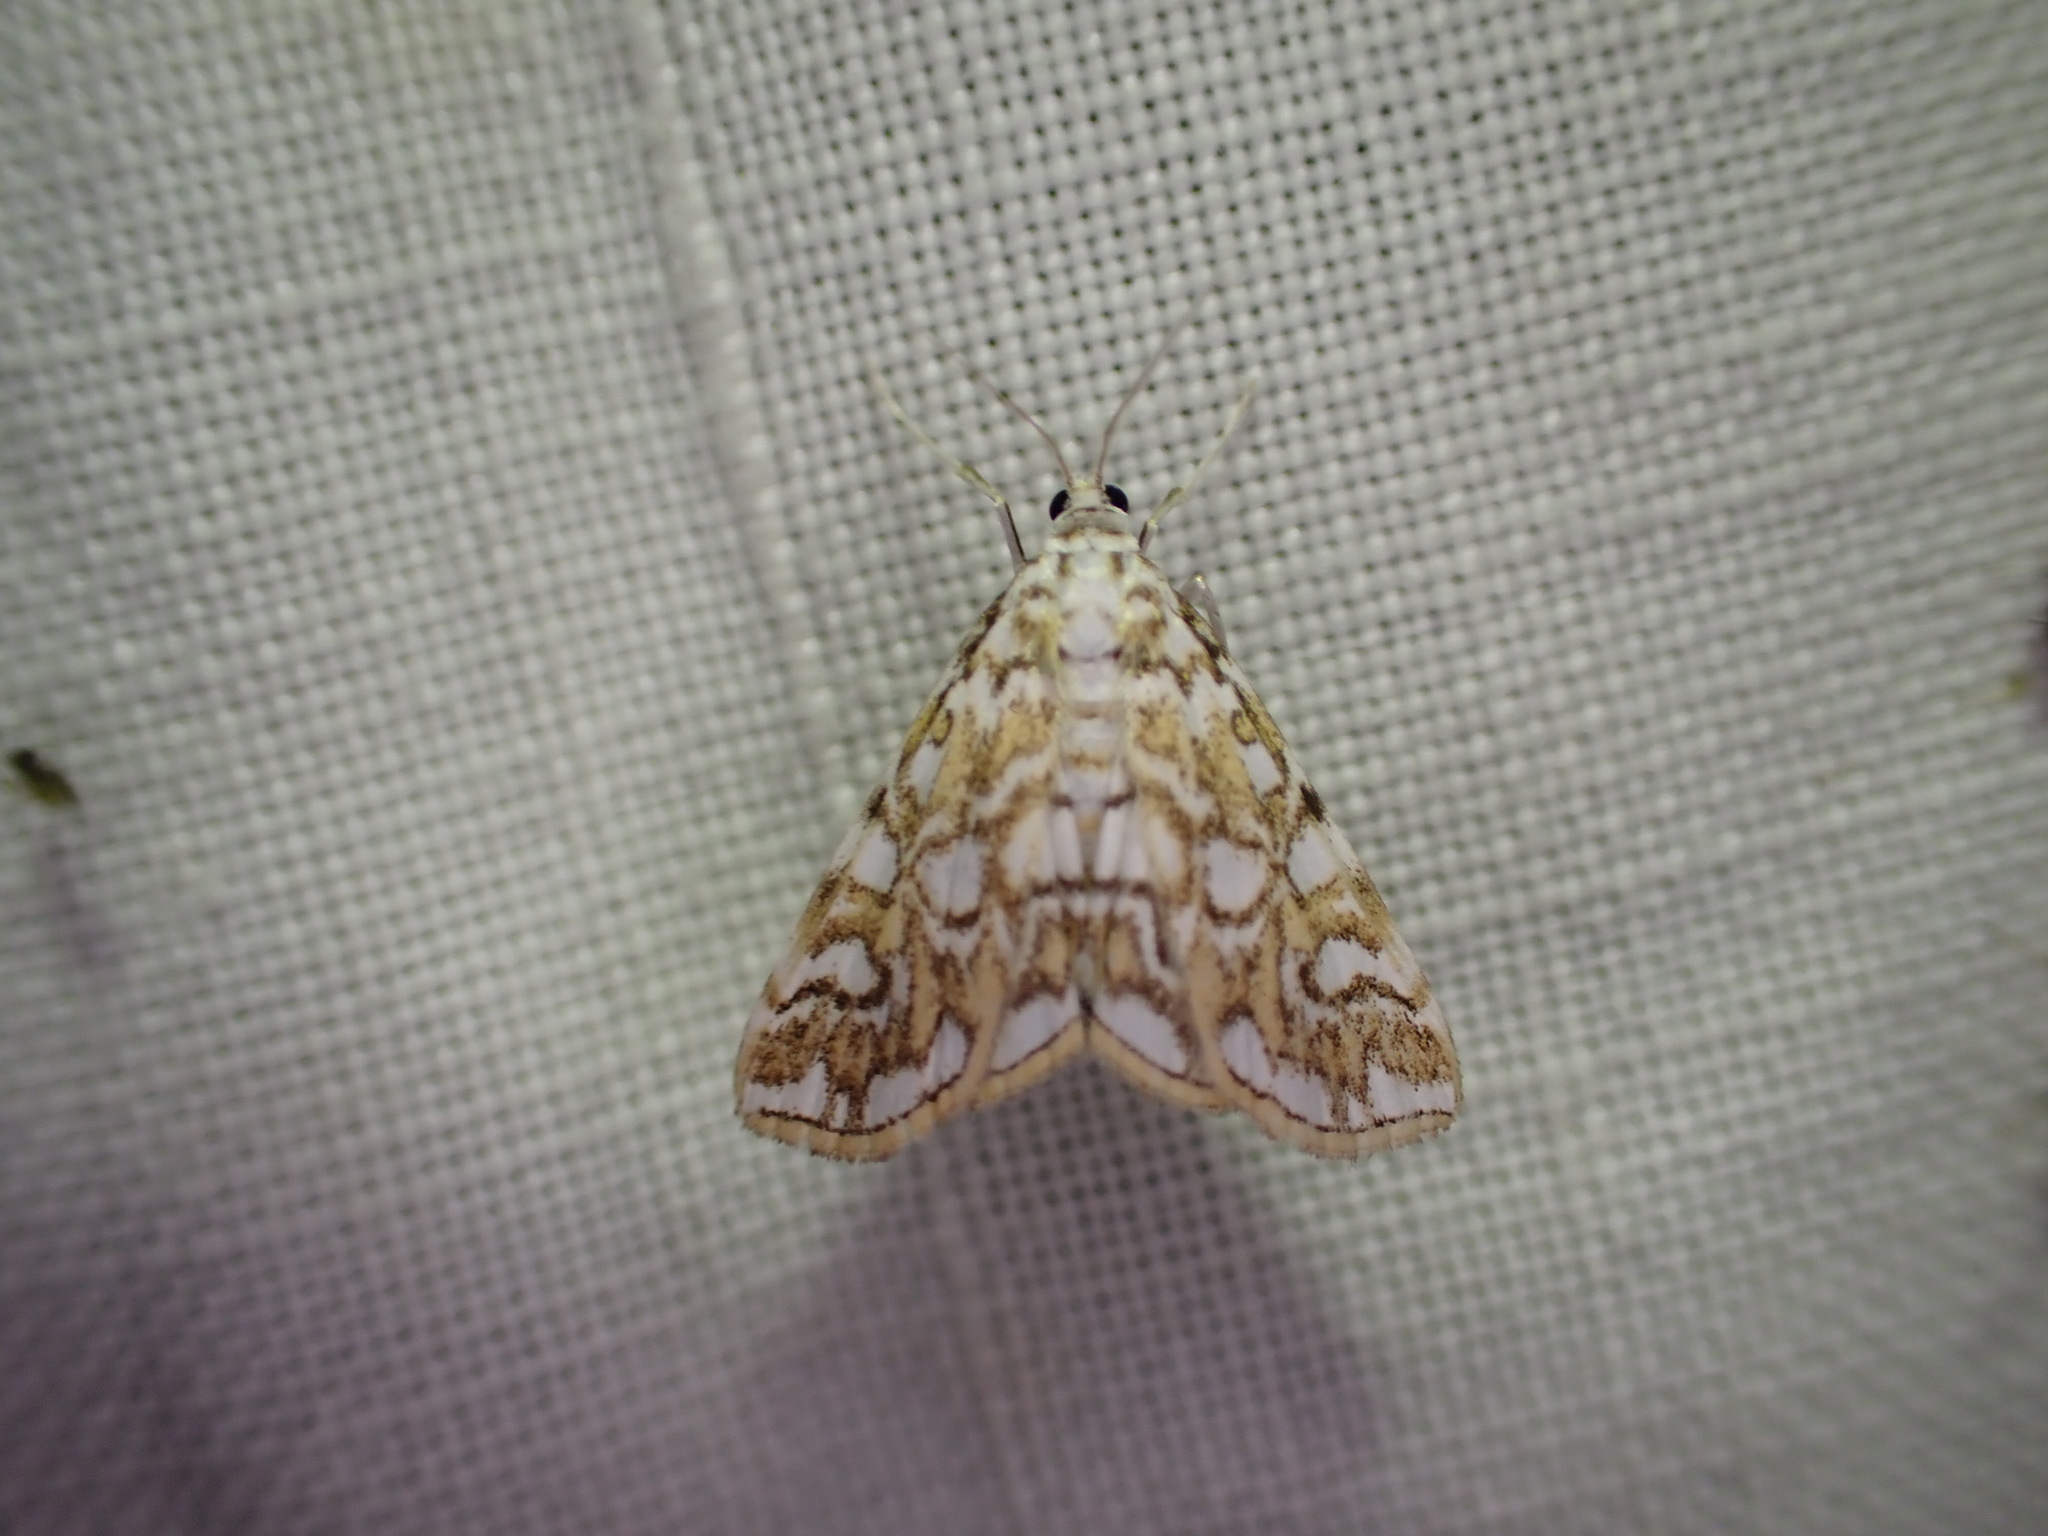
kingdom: Animalia
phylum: Arthropoda
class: Insecta
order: Lepidoptera
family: Crambidae
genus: Elophila
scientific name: Elophila nymphaeata
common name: Brown china-mark
